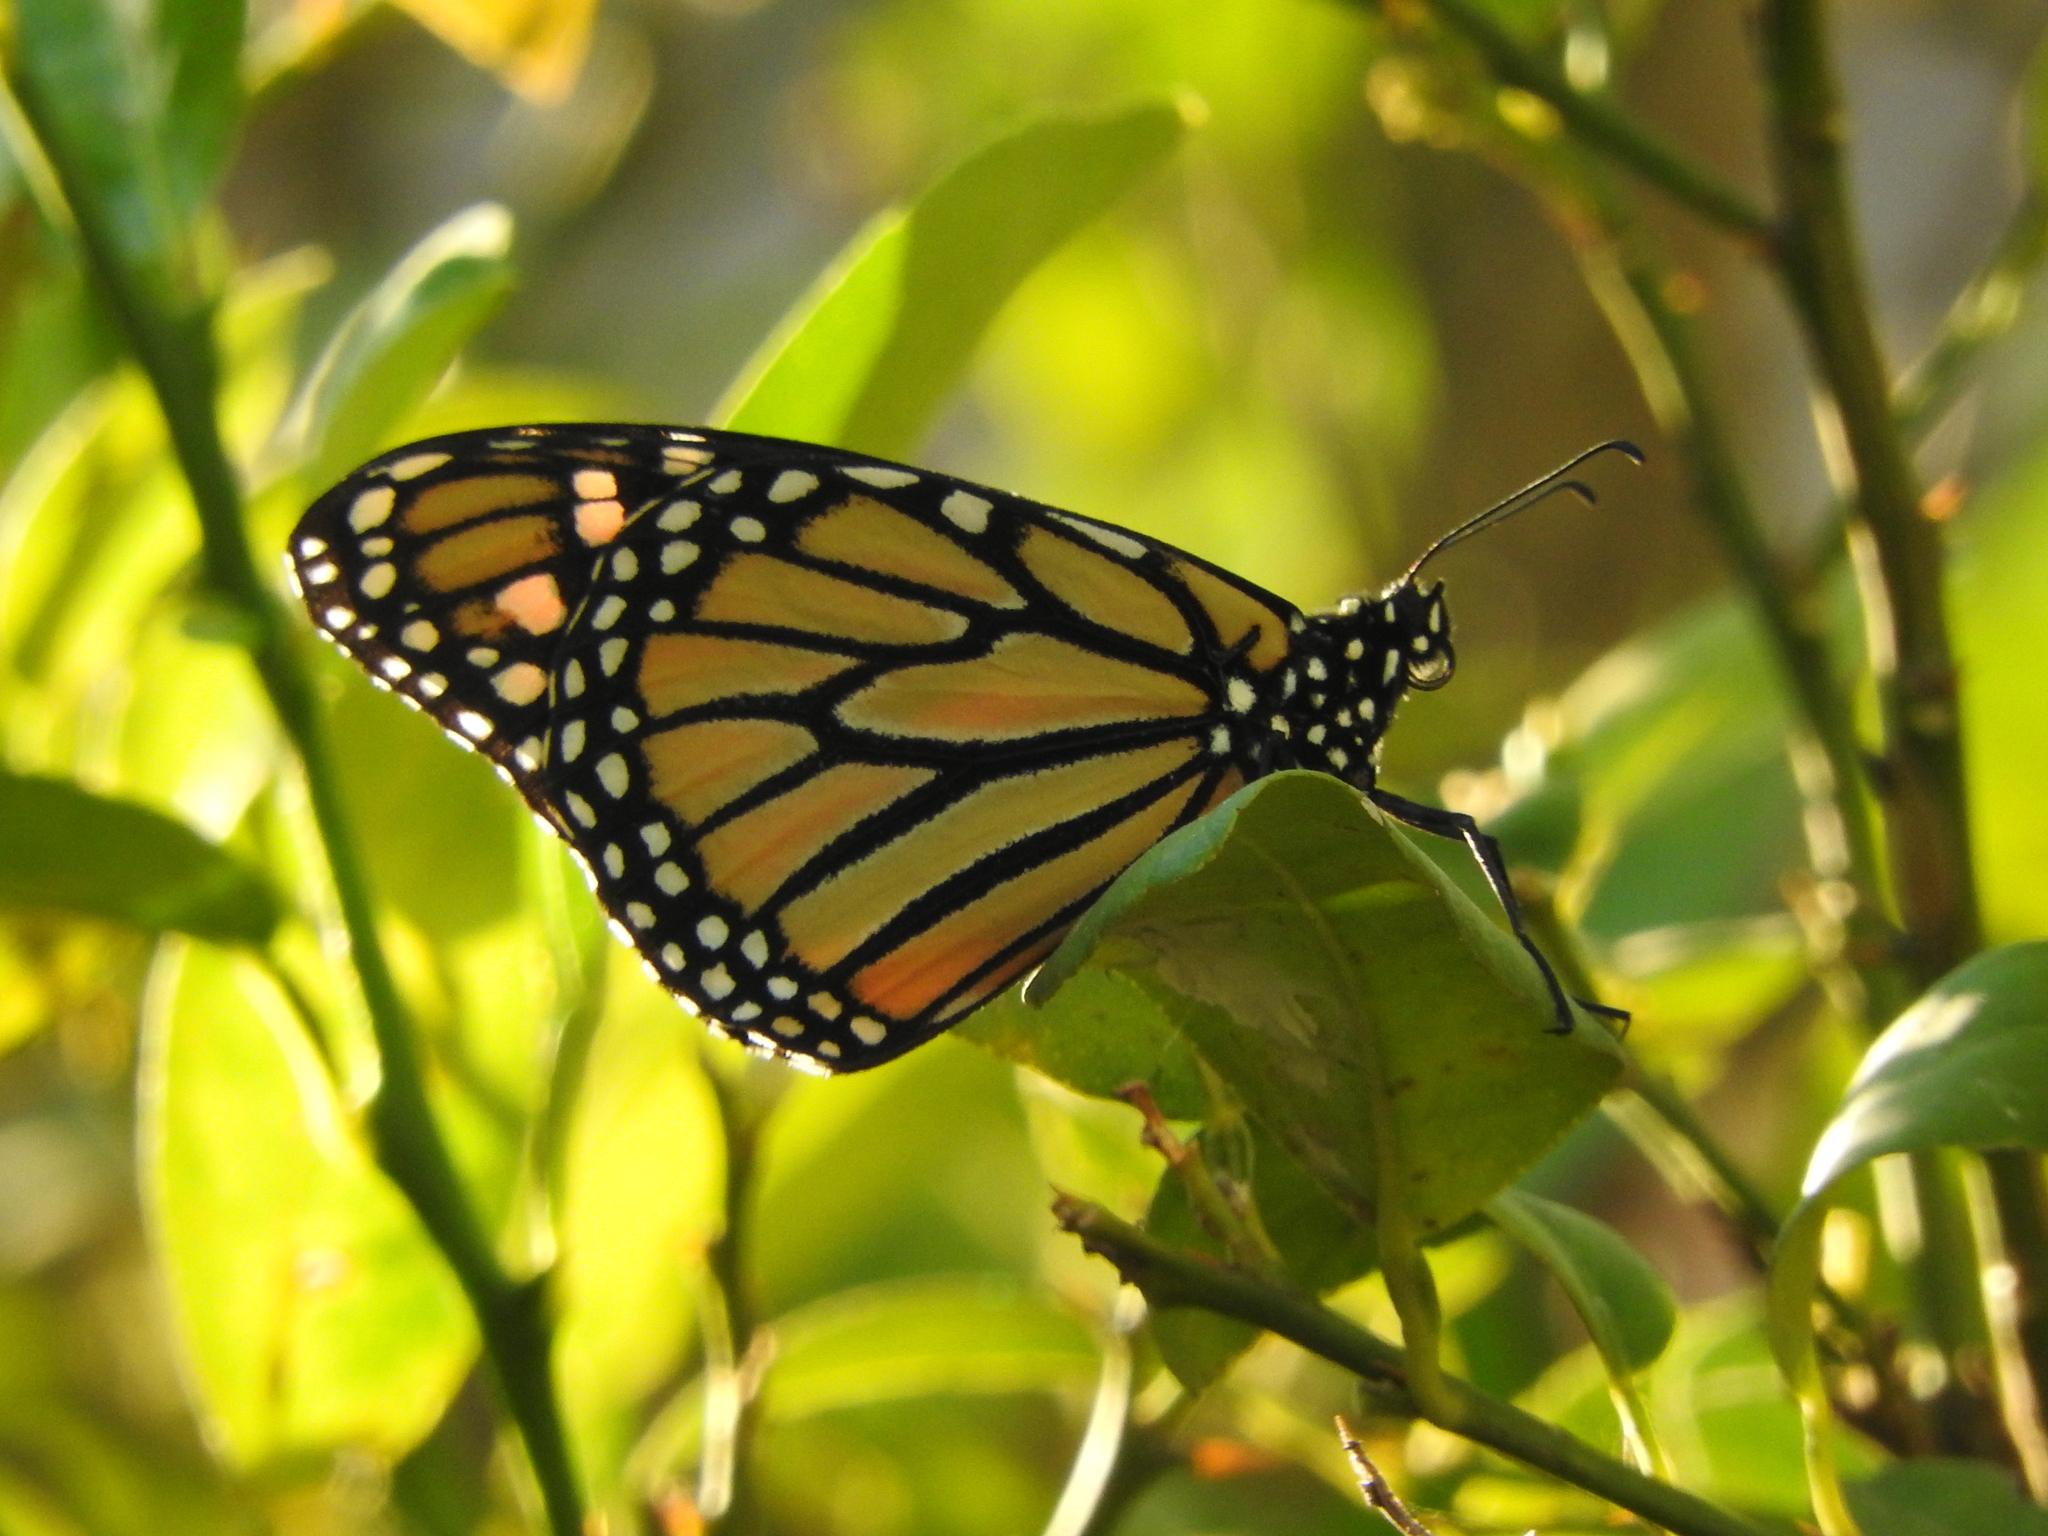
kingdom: Animalia
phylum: Arthropoda
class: Insecta
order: Lepidoptera
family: Nymphalidae
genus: Danaus
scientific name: Danaus plexippus
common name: Monarch
